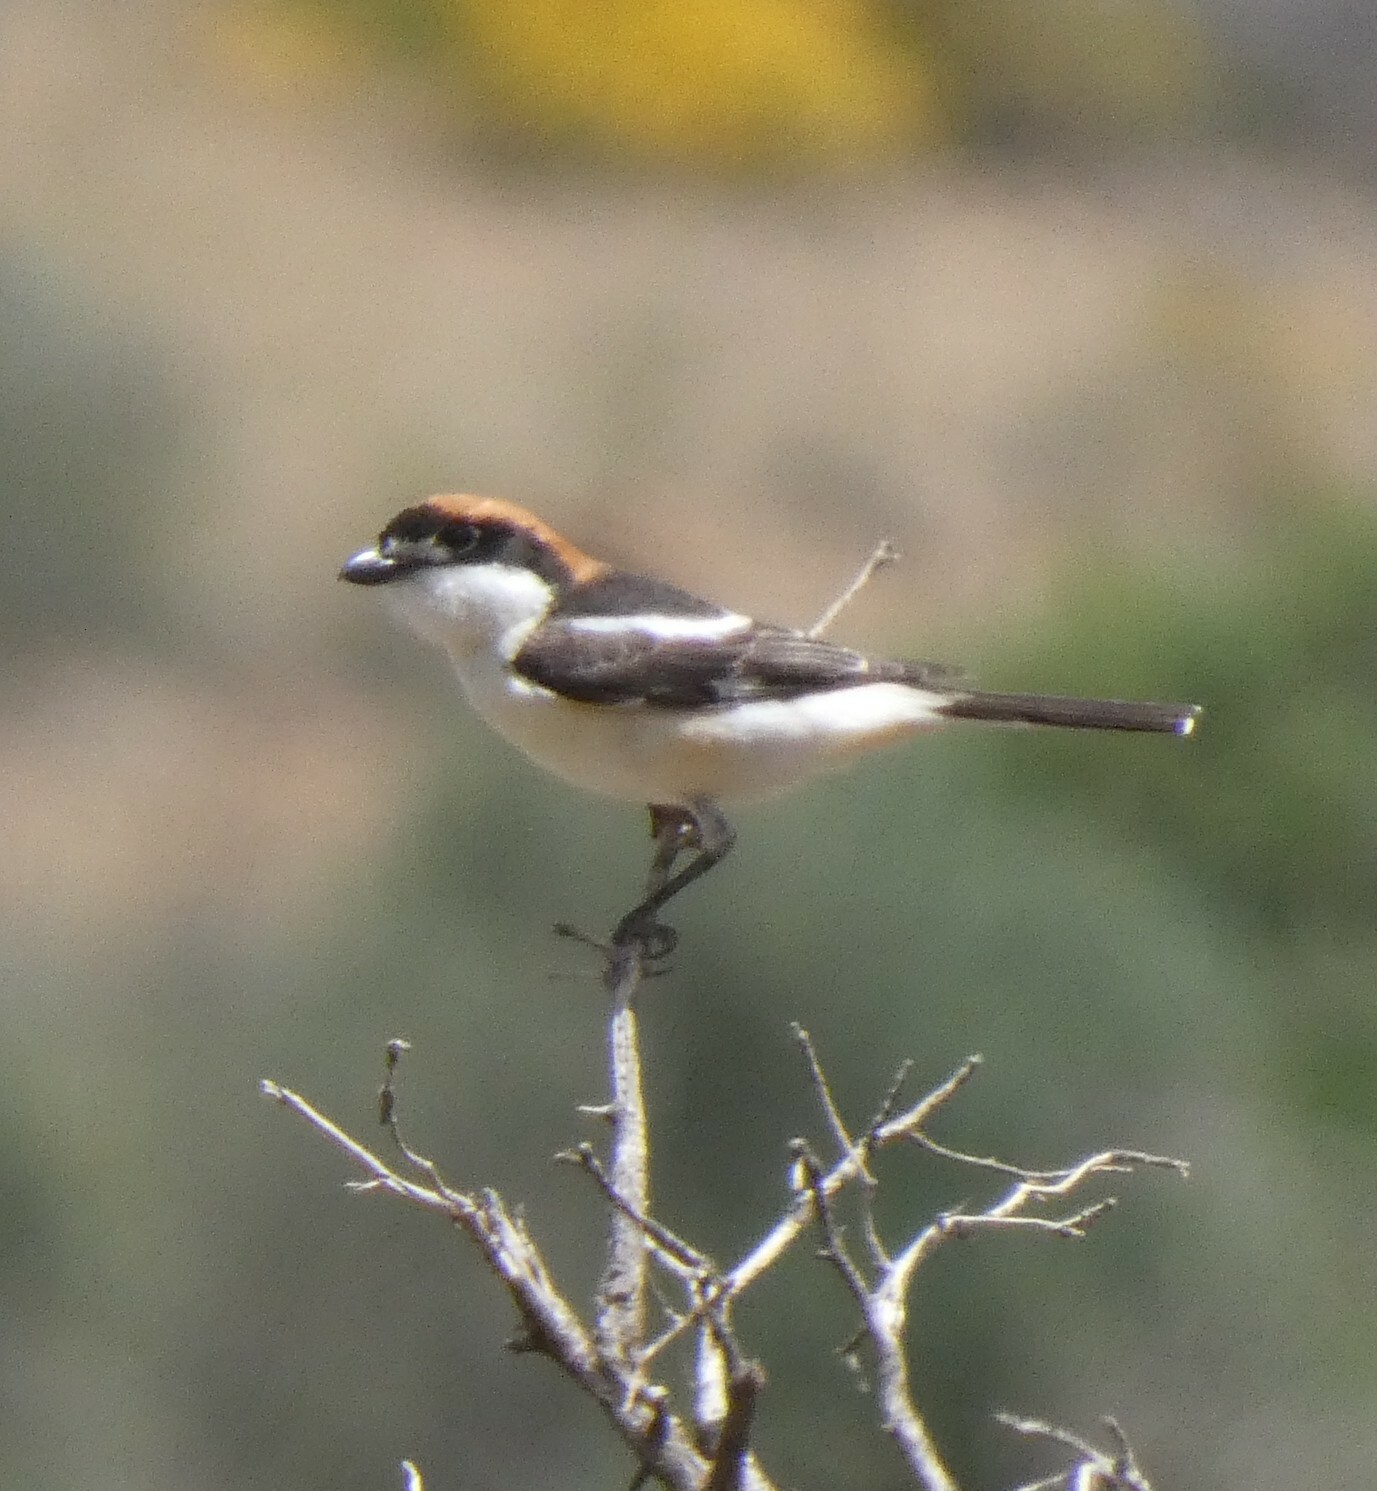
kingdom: Animalia
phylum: Chordata
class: Aves
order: Passeriformes
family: Laniidae
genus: Lanius
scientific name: Lanius senator
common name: Woodchat shrike
